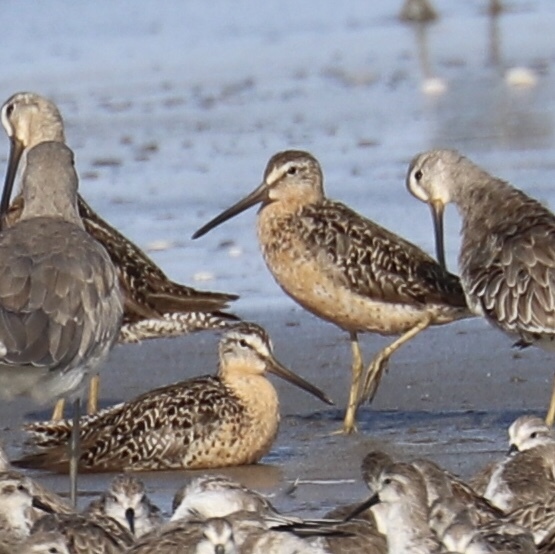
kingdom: Animalia
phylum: Chordata
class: Aves
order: Charadriiformes
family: Scolopacidae
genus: Limnodromus
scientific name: Limnodromus griseus
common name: Short-billed dowitcher
